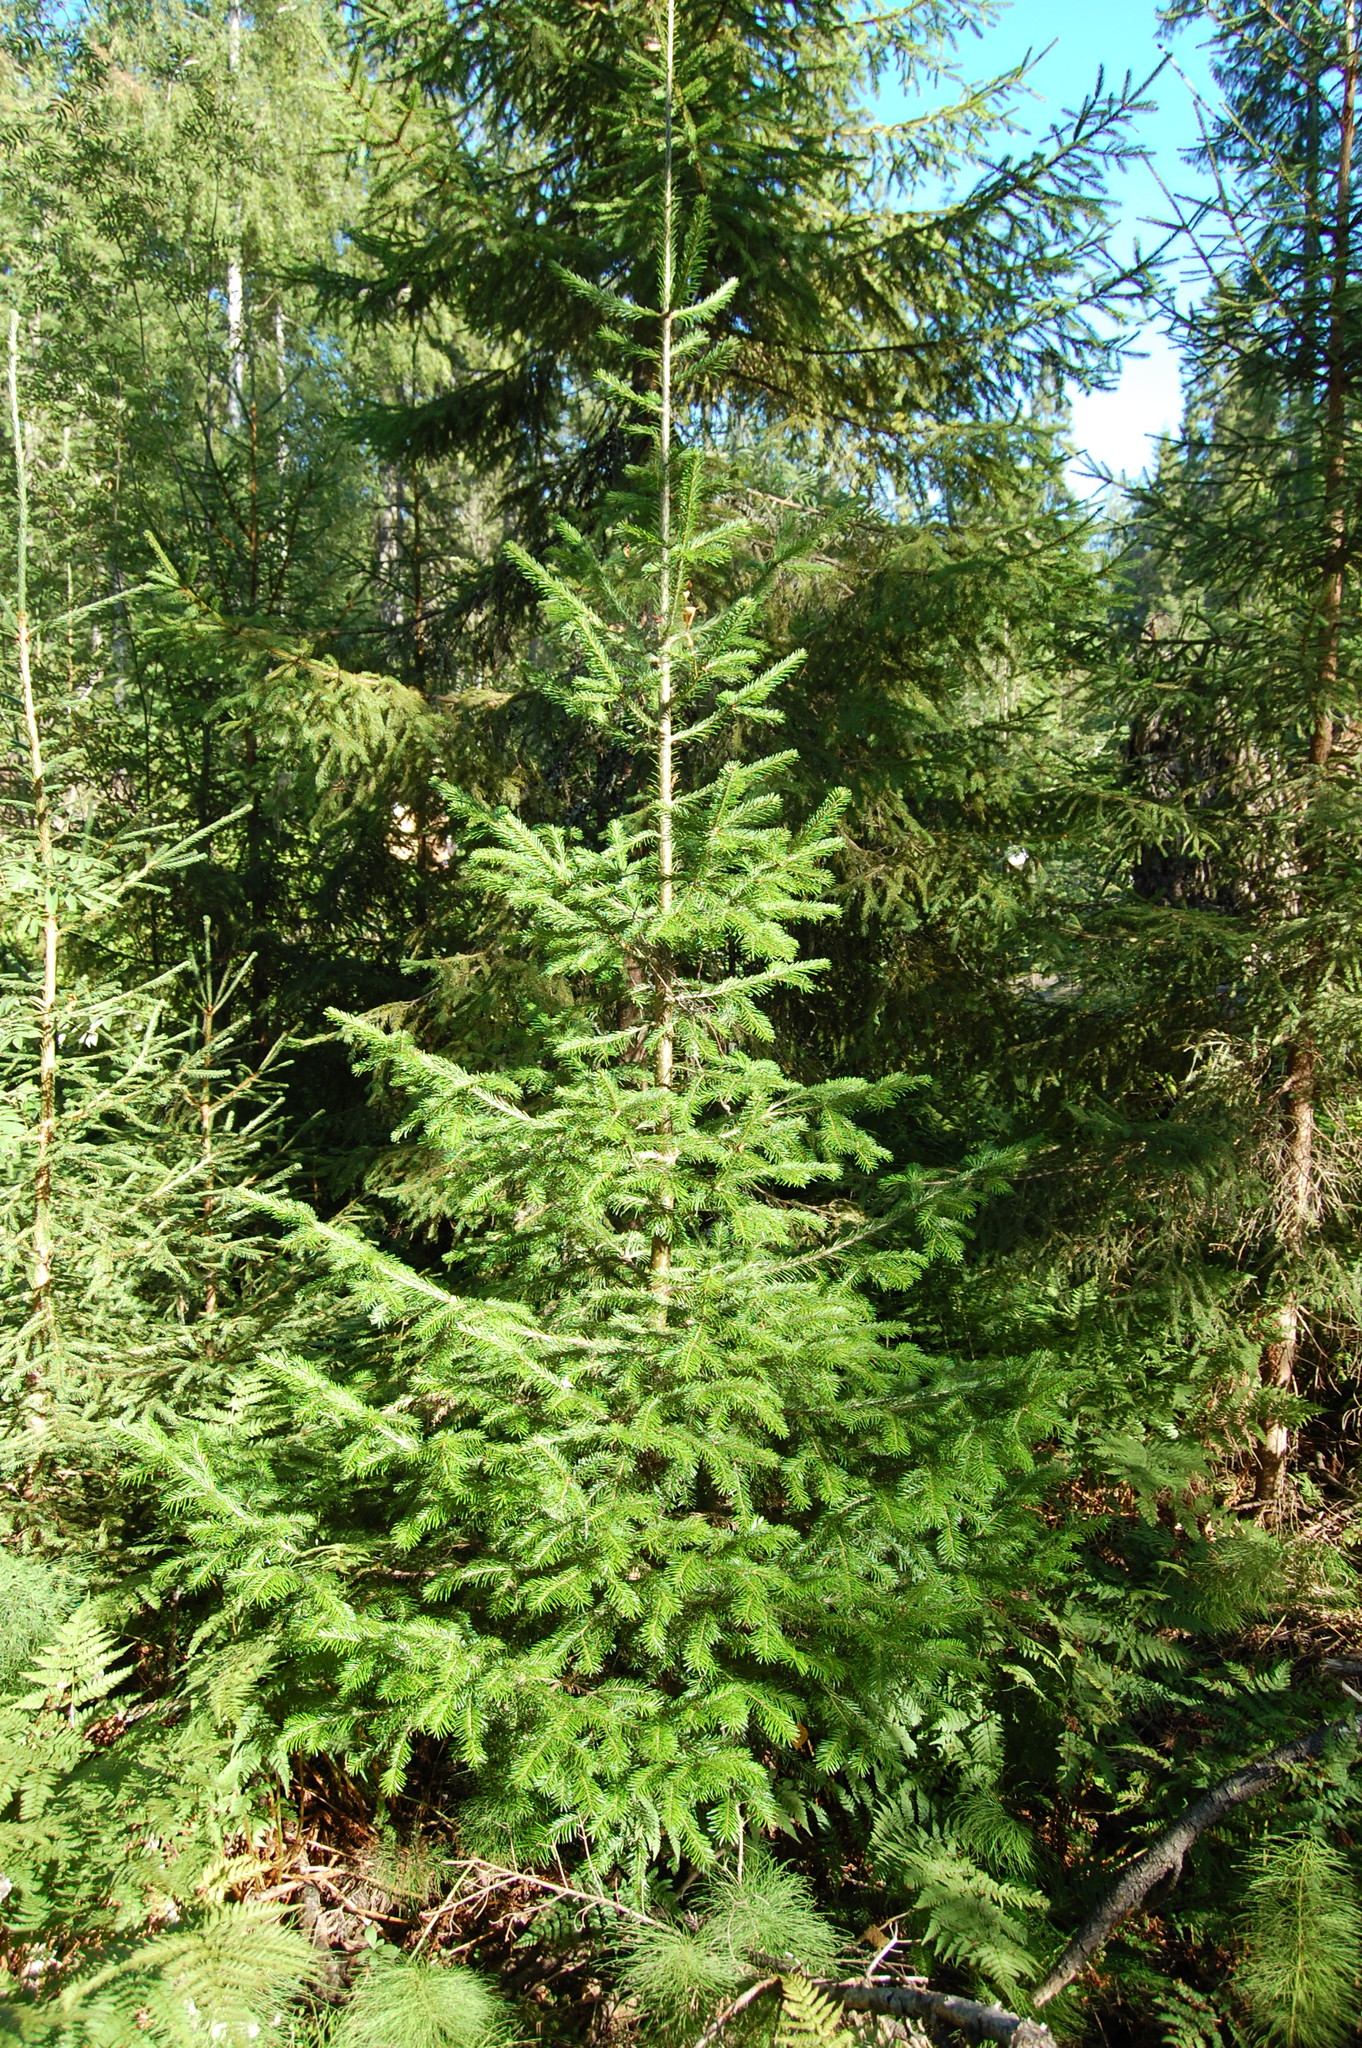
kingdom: Plantae
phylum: Tracheophyta
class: Pinopsida
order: Pinales
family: Pinaceae
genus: Abies
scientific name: Abies sibirica
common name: Siberian fir
